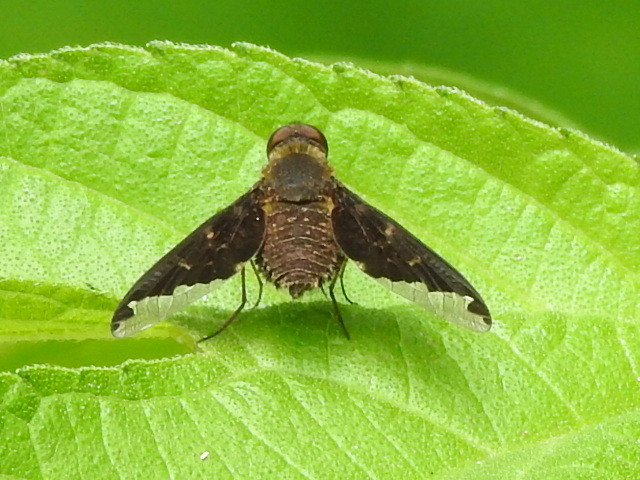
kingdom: Animalia
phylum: Arthropoda
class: Insecta
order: Diptera
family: Bombyliidae
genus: Hemipenthes
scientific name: Hemipenthes sinuosus
